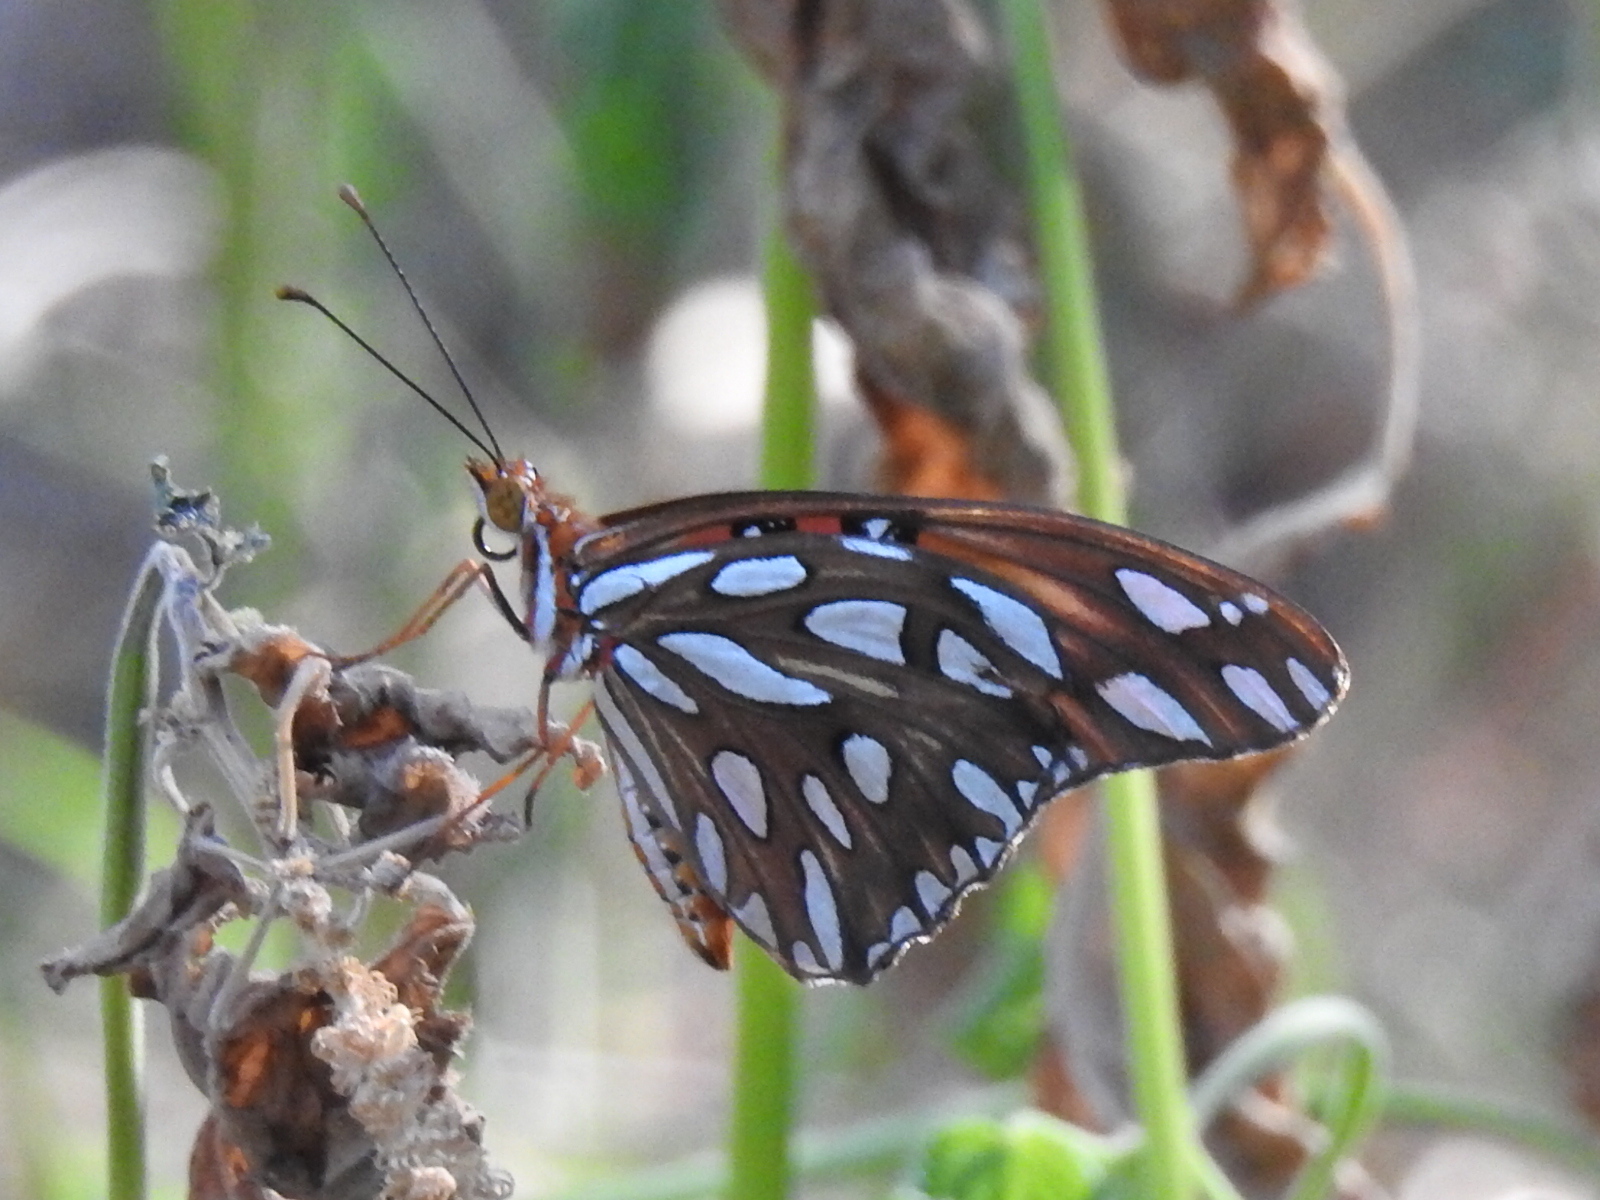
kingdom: Animalia
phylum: Arthropoda
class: Insecta
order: Lepidoptera
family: Nymphalidae
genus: Dione
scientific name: Dione vanillae
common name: Gulf fritillary
